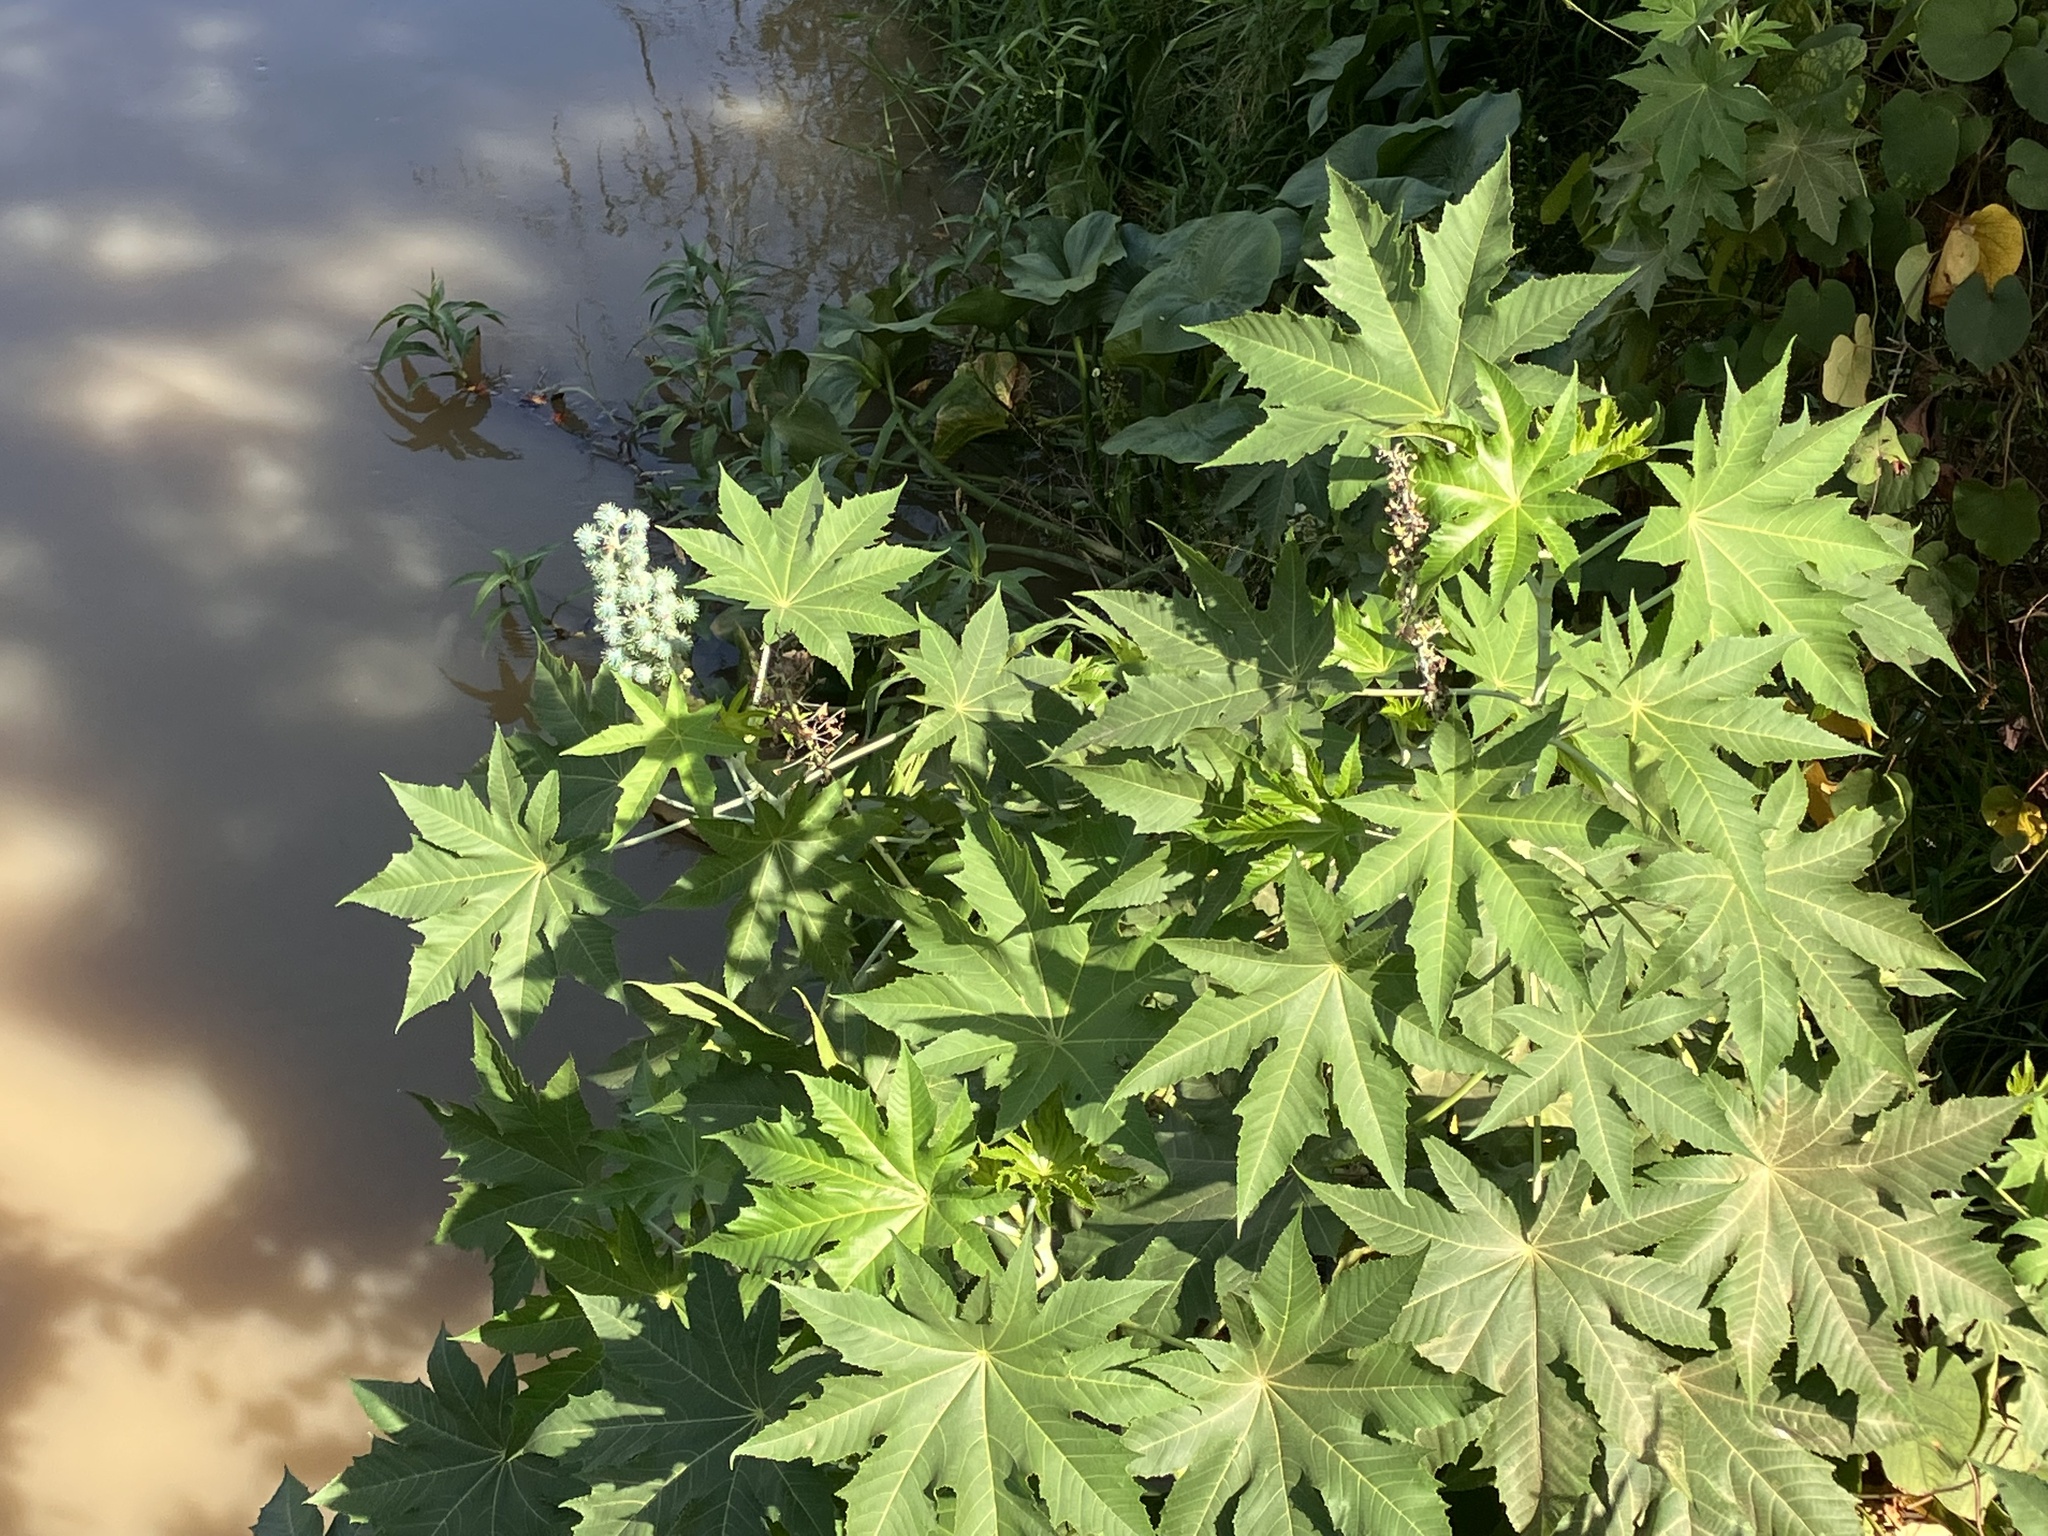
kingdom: Plantae
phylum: Tracheophyta
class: Magnoliopsida
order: Malpighiales
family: Euphorbiaceae
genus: Ricinus
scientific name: Ricinus communis
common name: Castor-oil-plant
